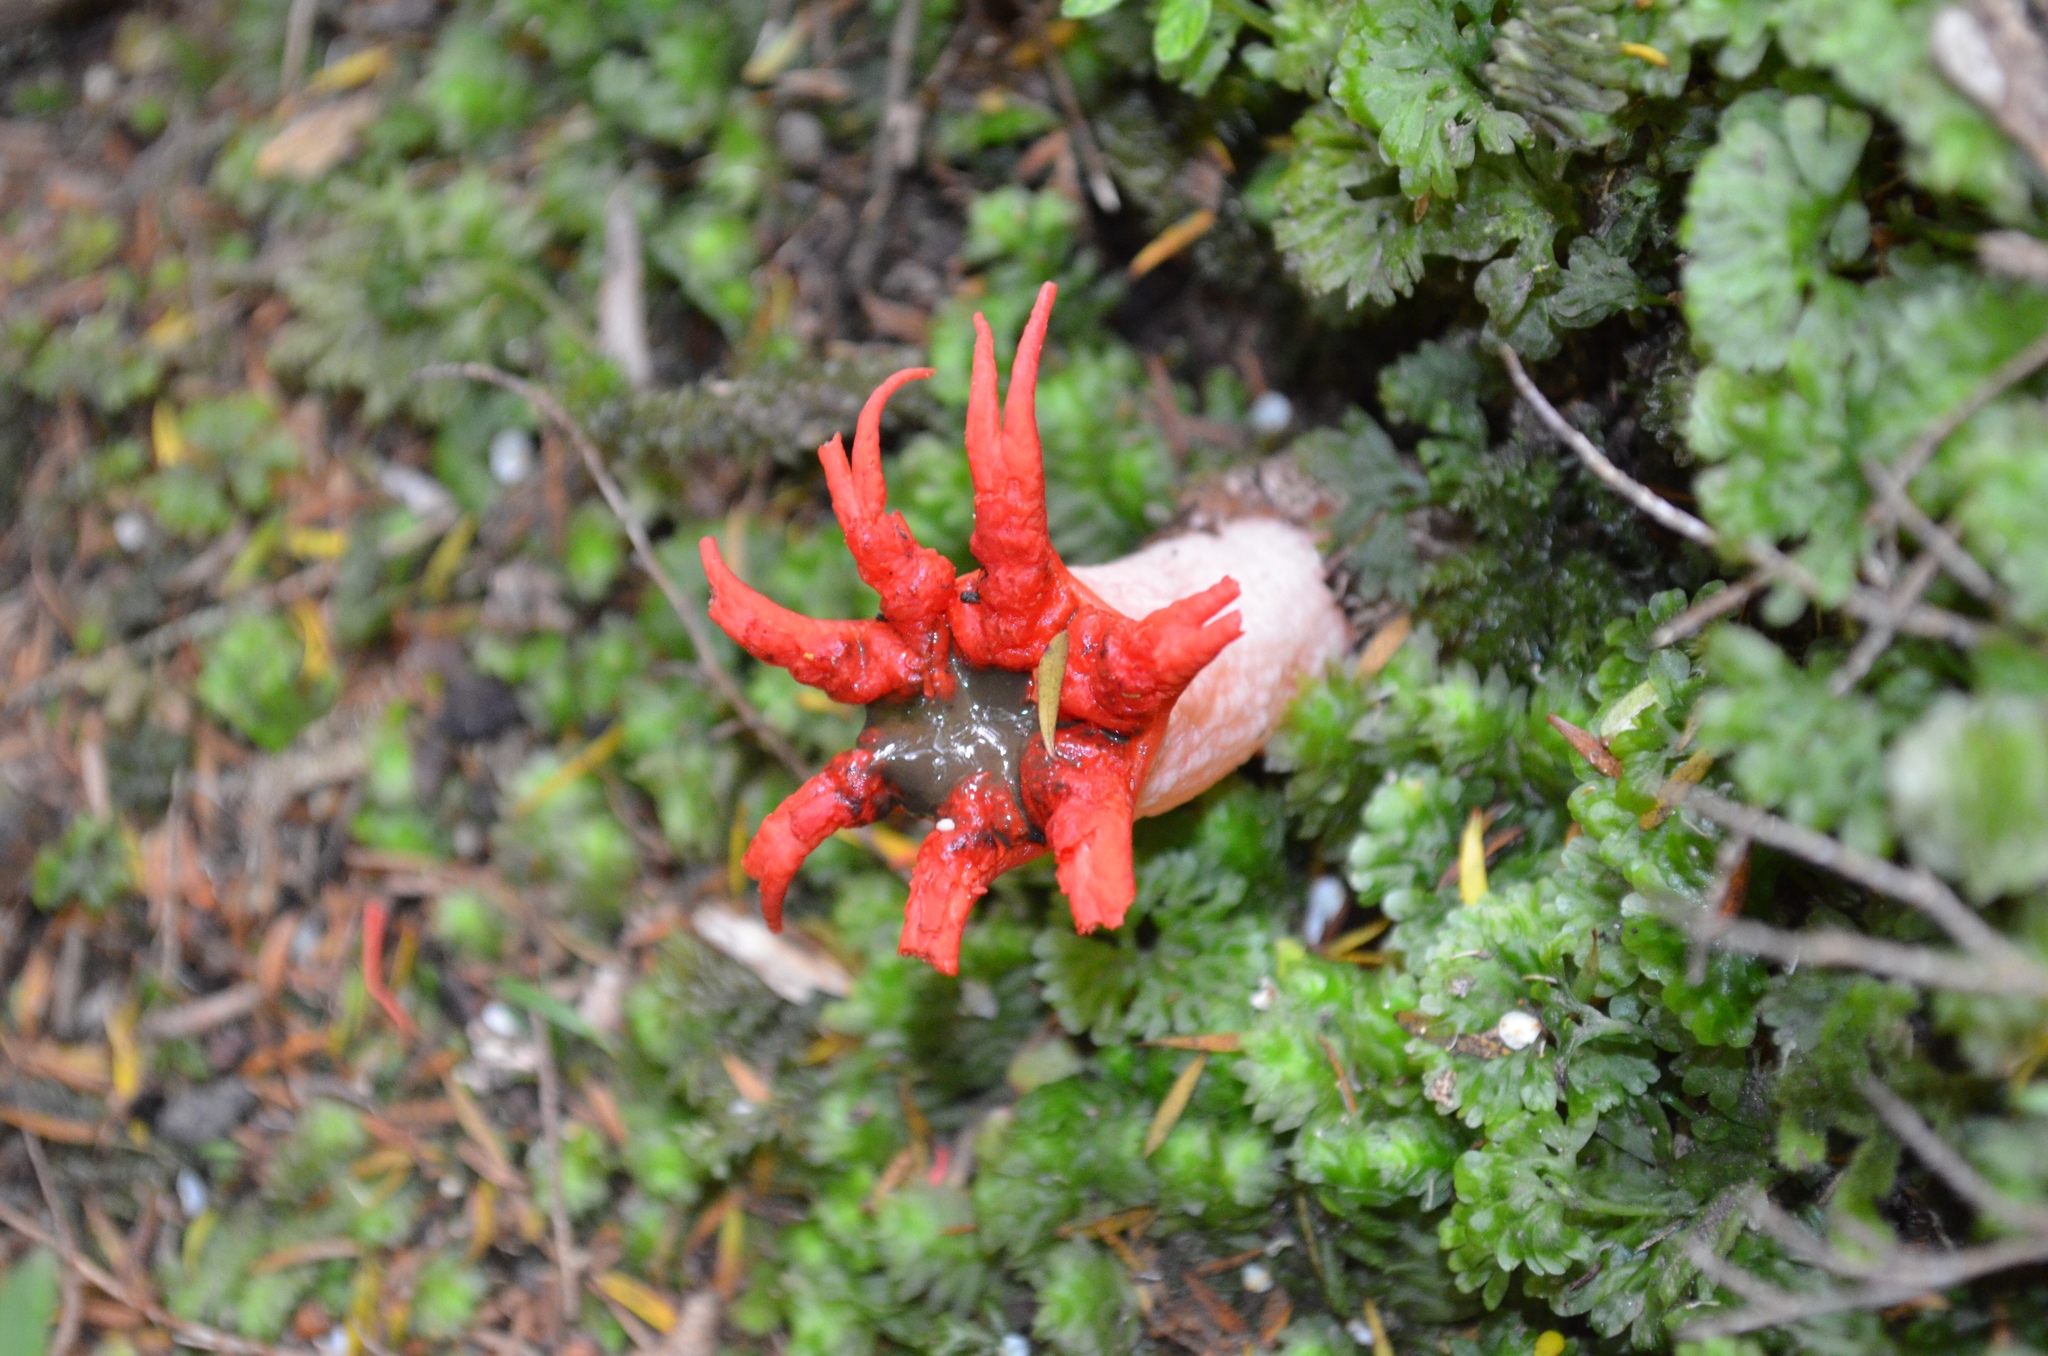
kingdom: Fungi
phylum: Basidiomycota
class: Agaricomycetes
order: Phallales
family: Phallaceae
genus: Aseroe
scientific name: Aseroe rubra
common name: Starfish fungus
